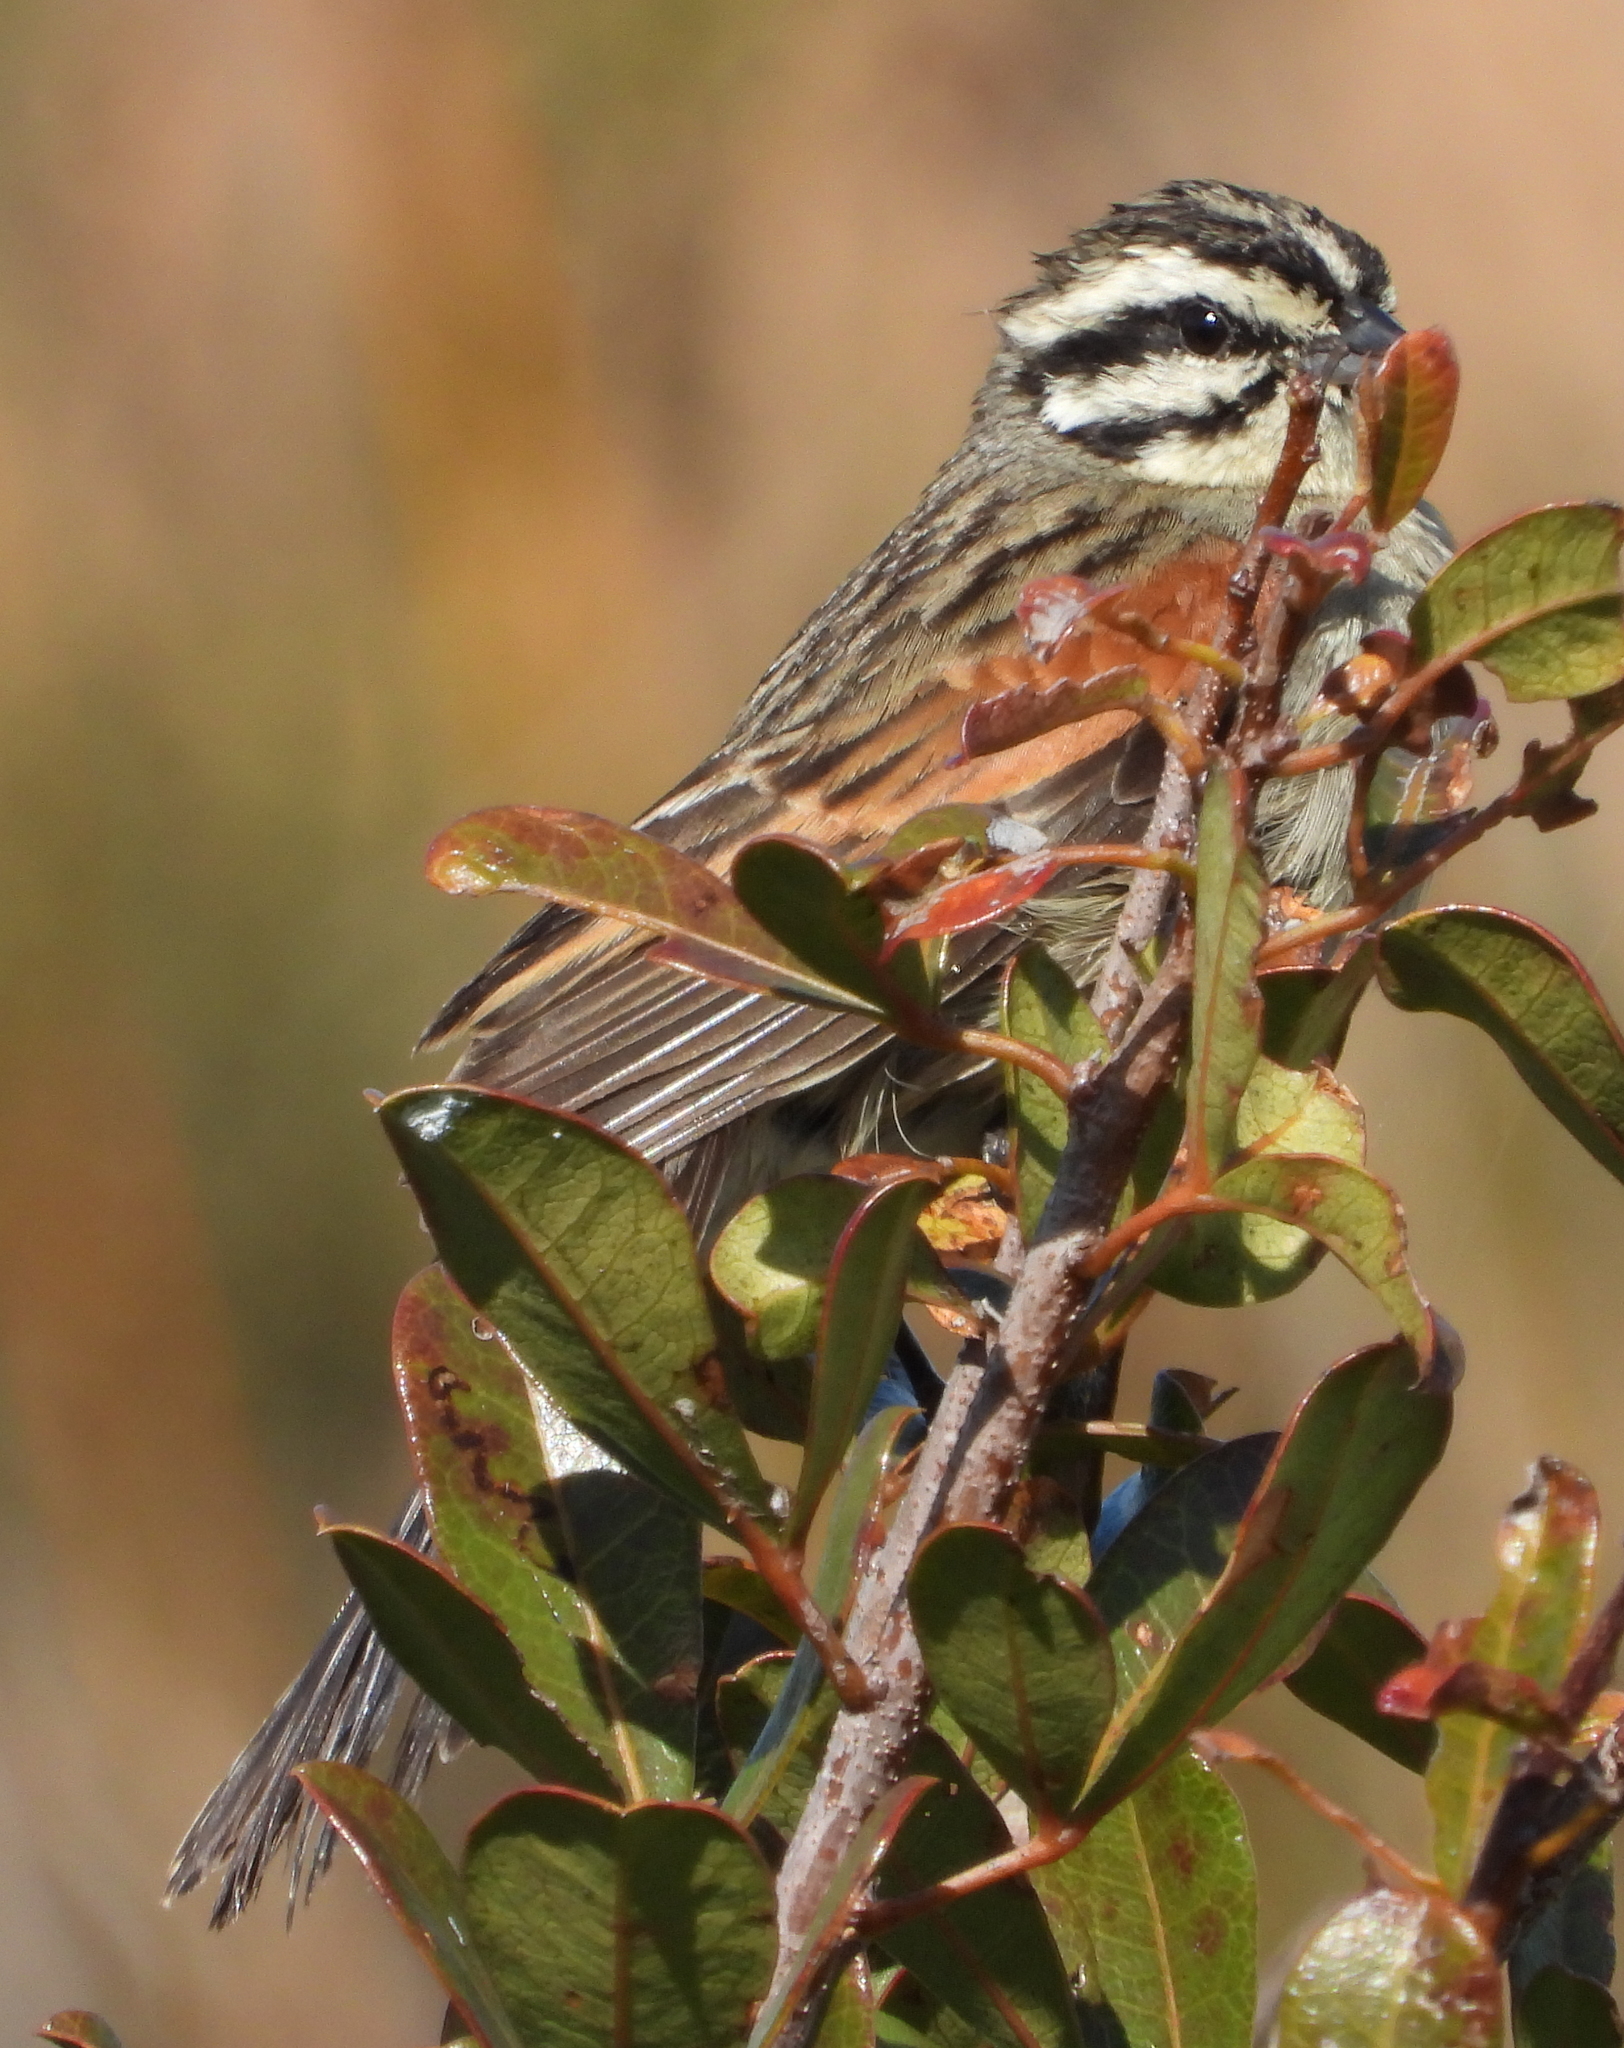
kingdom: Animalia
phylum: Chordata
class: Aves
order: Passeriformes
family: Emberizidae
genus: Emberiza
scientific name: Emberiza capensis
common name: Cape bunting
